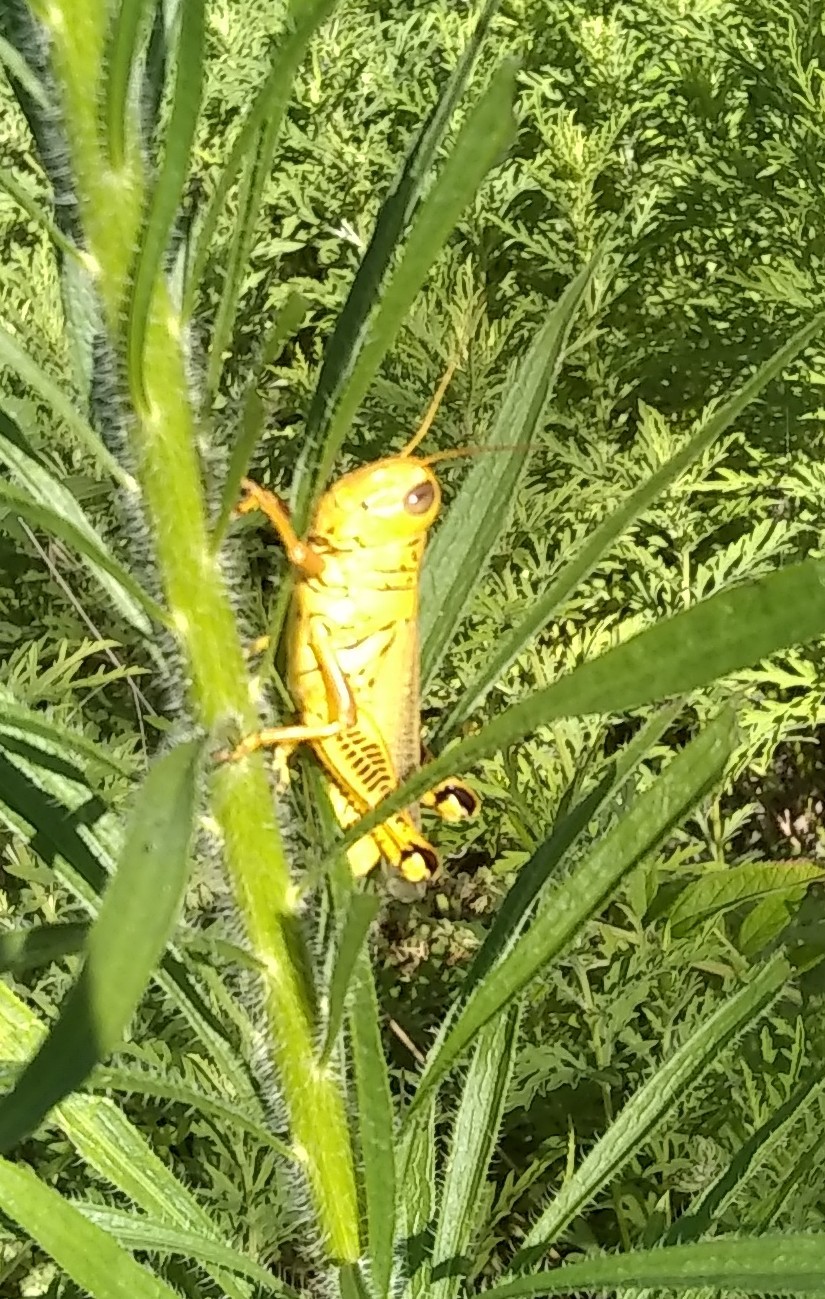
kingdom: Animalia
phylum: Arthropoda
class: Insecta
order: Orthoptera
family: Acrididae
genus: Melanoplus
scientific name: Melanoplus differentialis
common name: Differential grasshopper
